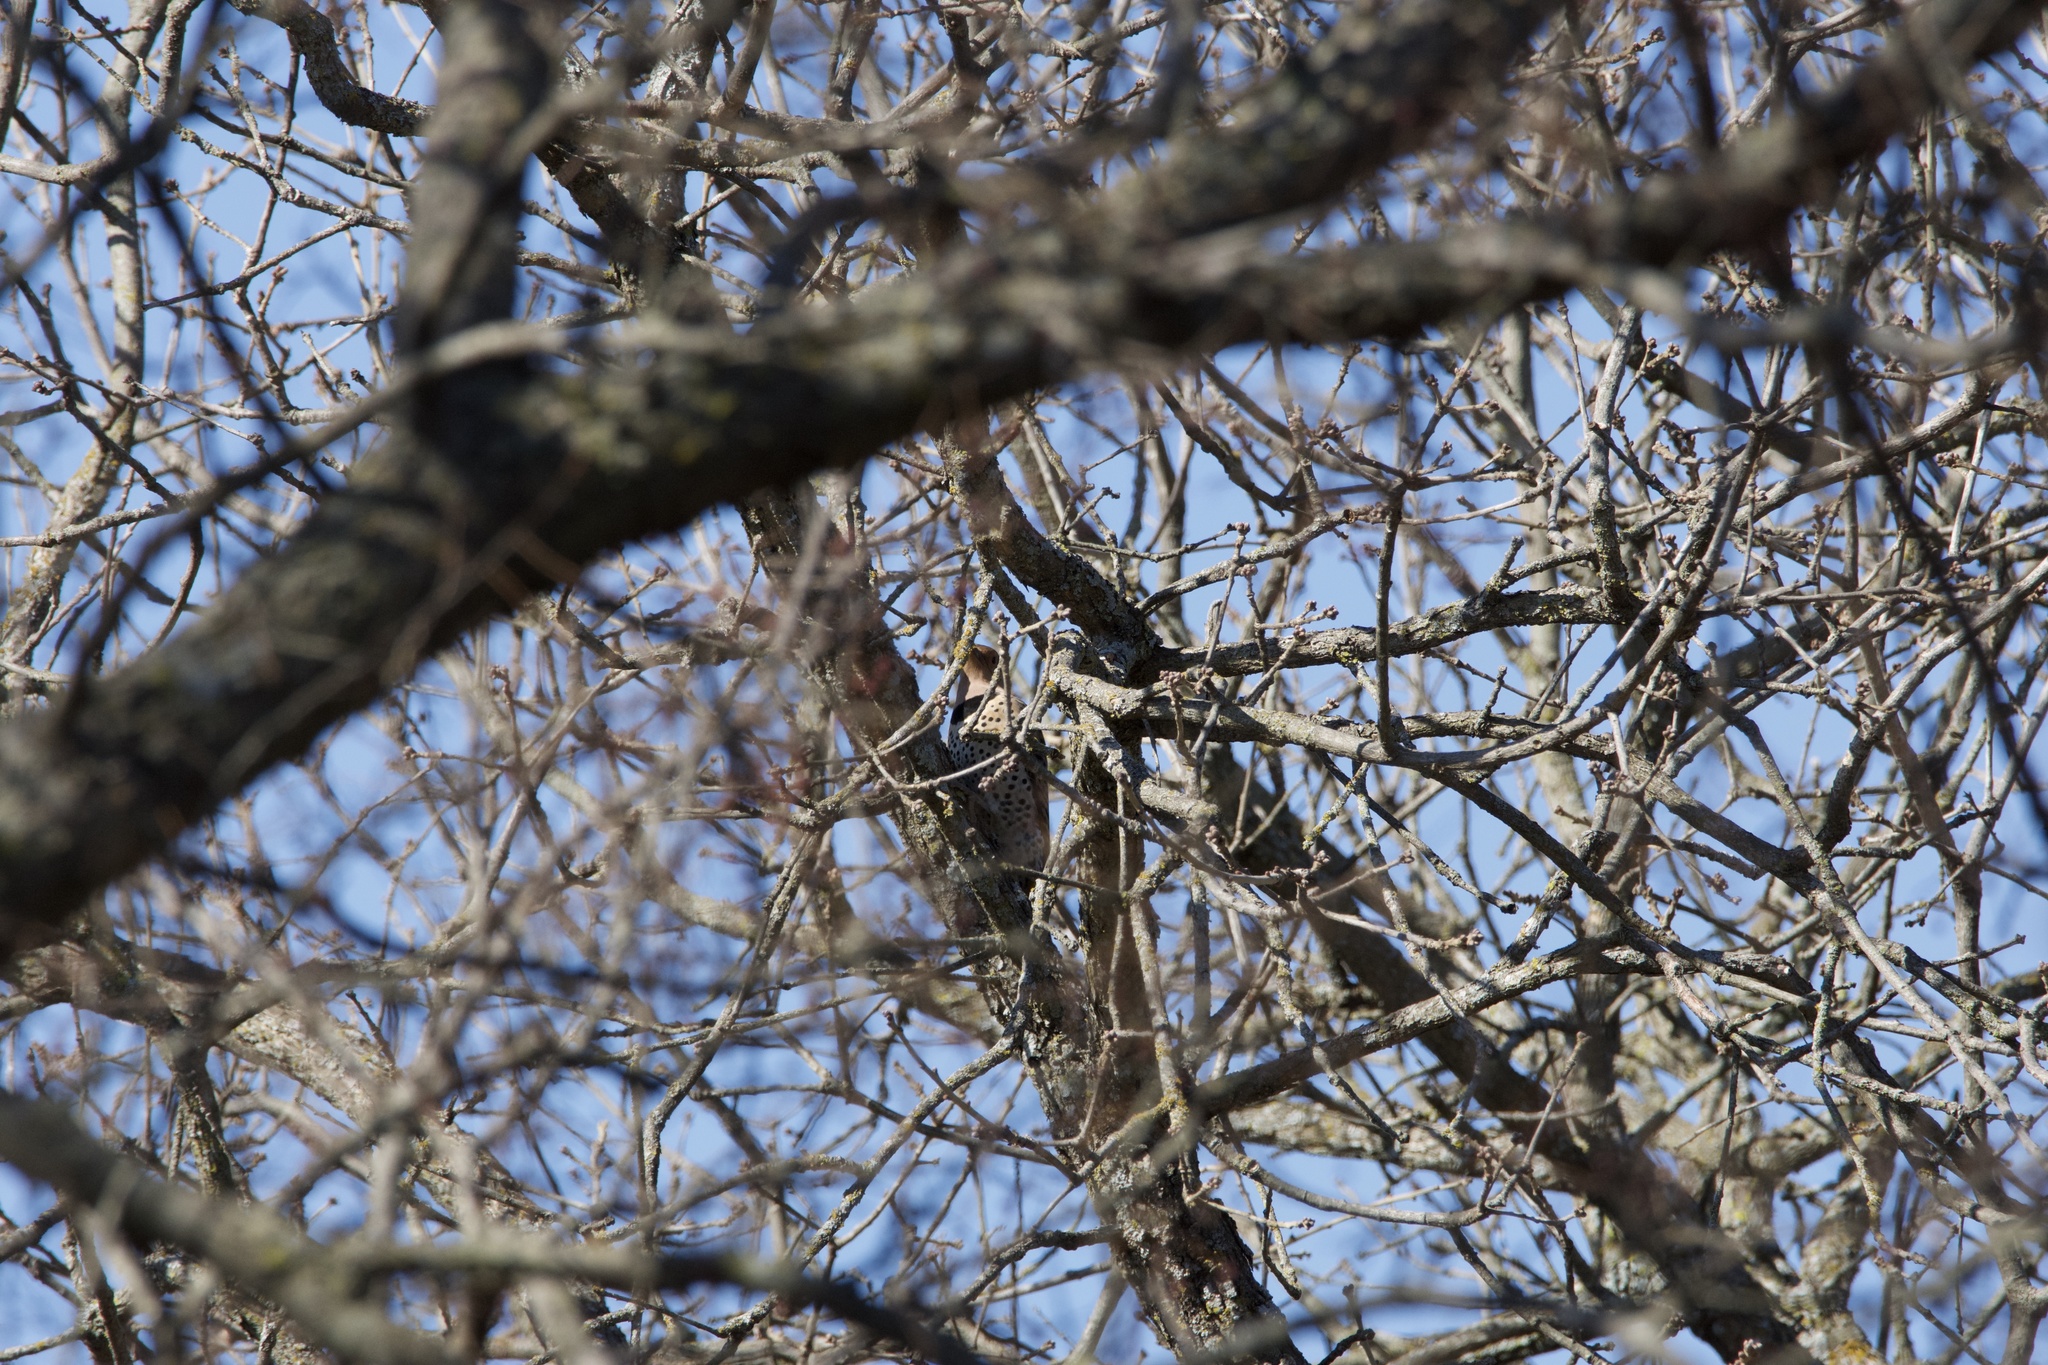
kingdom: Animalia
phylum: Chordata
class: Aves
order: Piciformes
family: Picidae
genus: Colaptes
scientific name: Colaptes auratus
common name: Northern flicker
